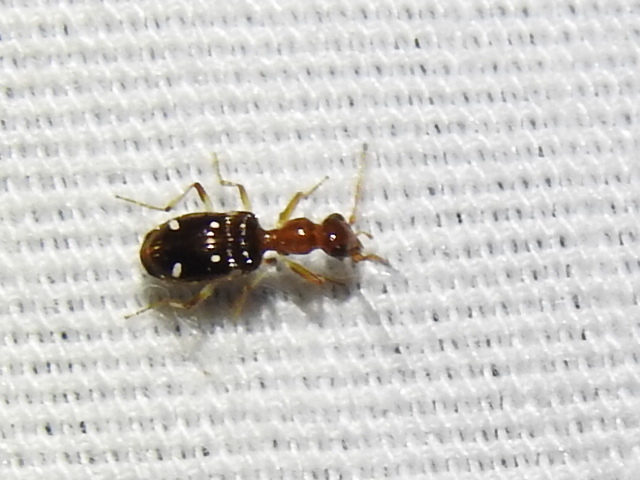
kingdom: Animalia
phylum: Arthropoda
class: Insecta
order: Coleoptera
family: Carabidae
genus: Ega
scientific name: Ega sallei
